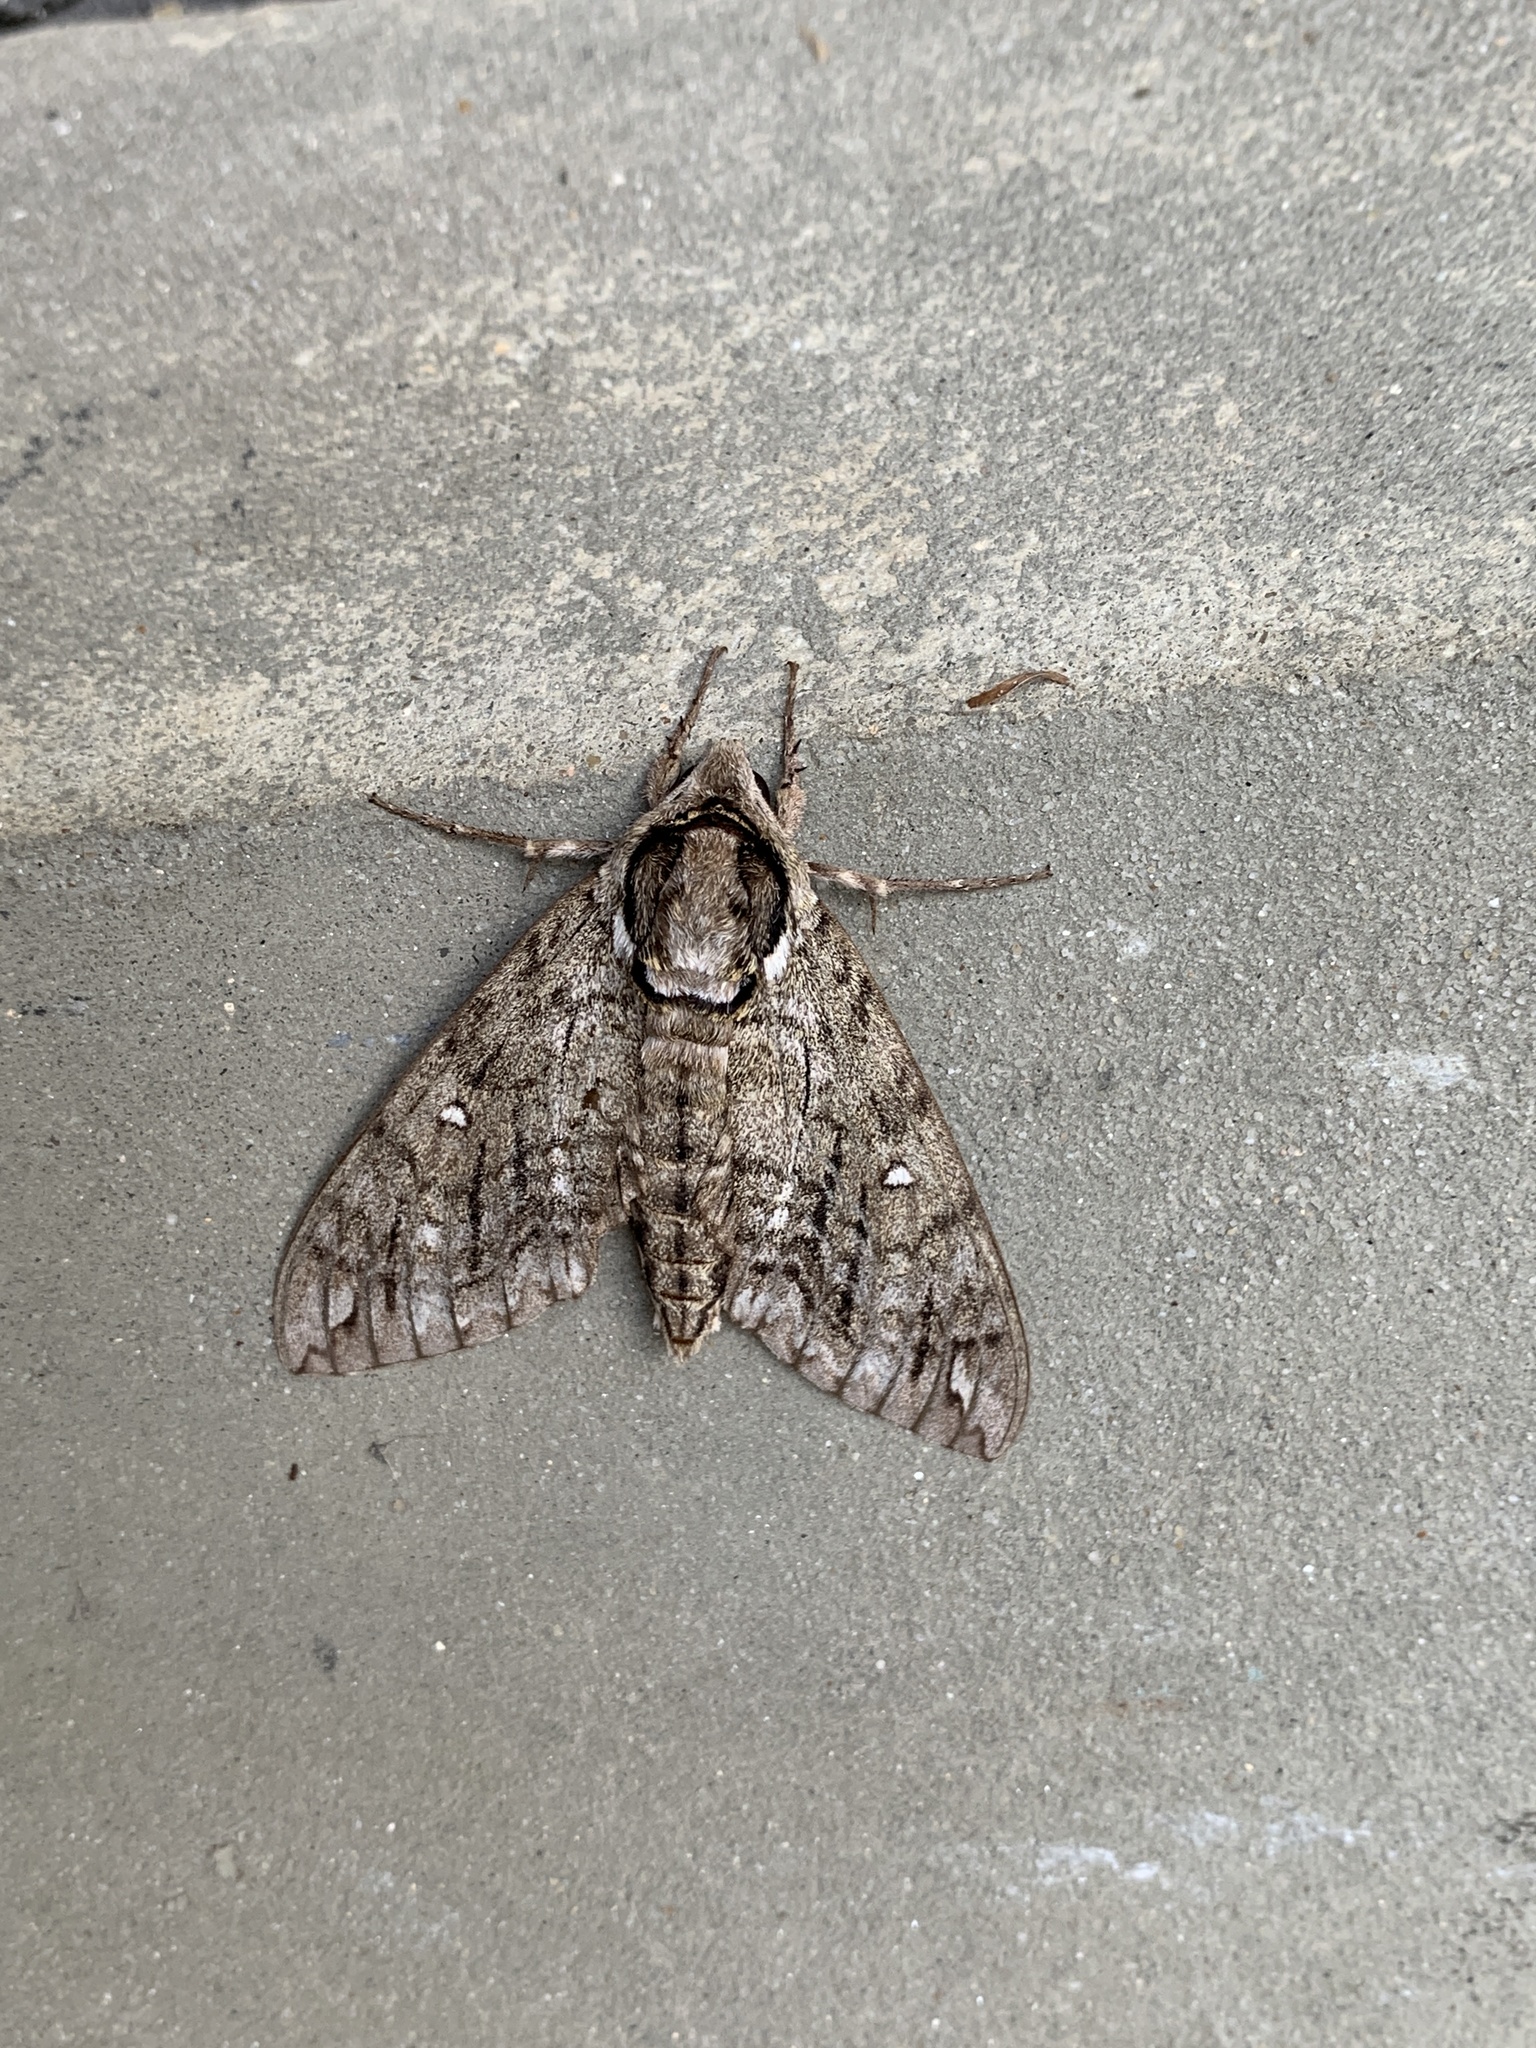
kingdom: Animalia
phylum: Arthropoda
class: Insecta
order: Lepidoptera
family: Sphingidae
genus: Ceratomia
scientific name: Ceratomia undulosa
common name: Waved sphinx
